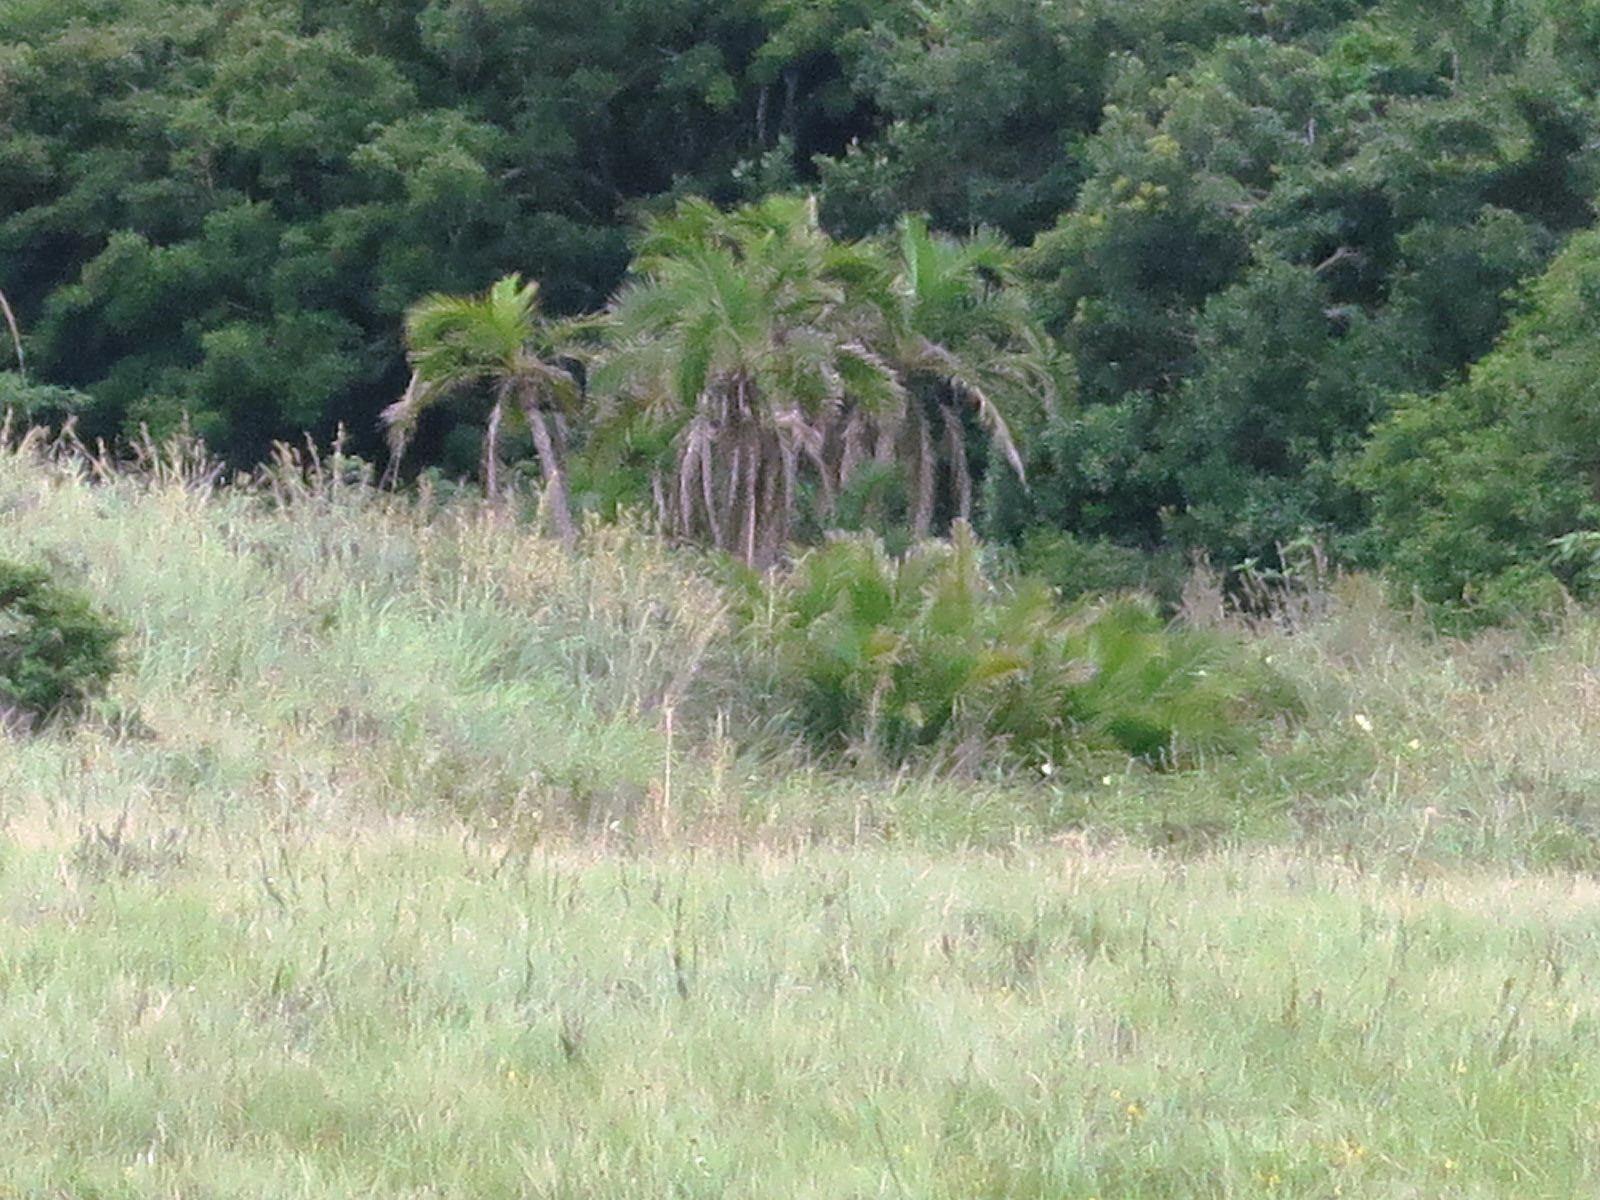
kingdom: Plantae
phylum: Tracheophyta
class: Liliopsida
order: Arecales
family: Arecaceae
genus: Phoenix
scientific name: Phoenix reclinata
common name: Senegal date palm
